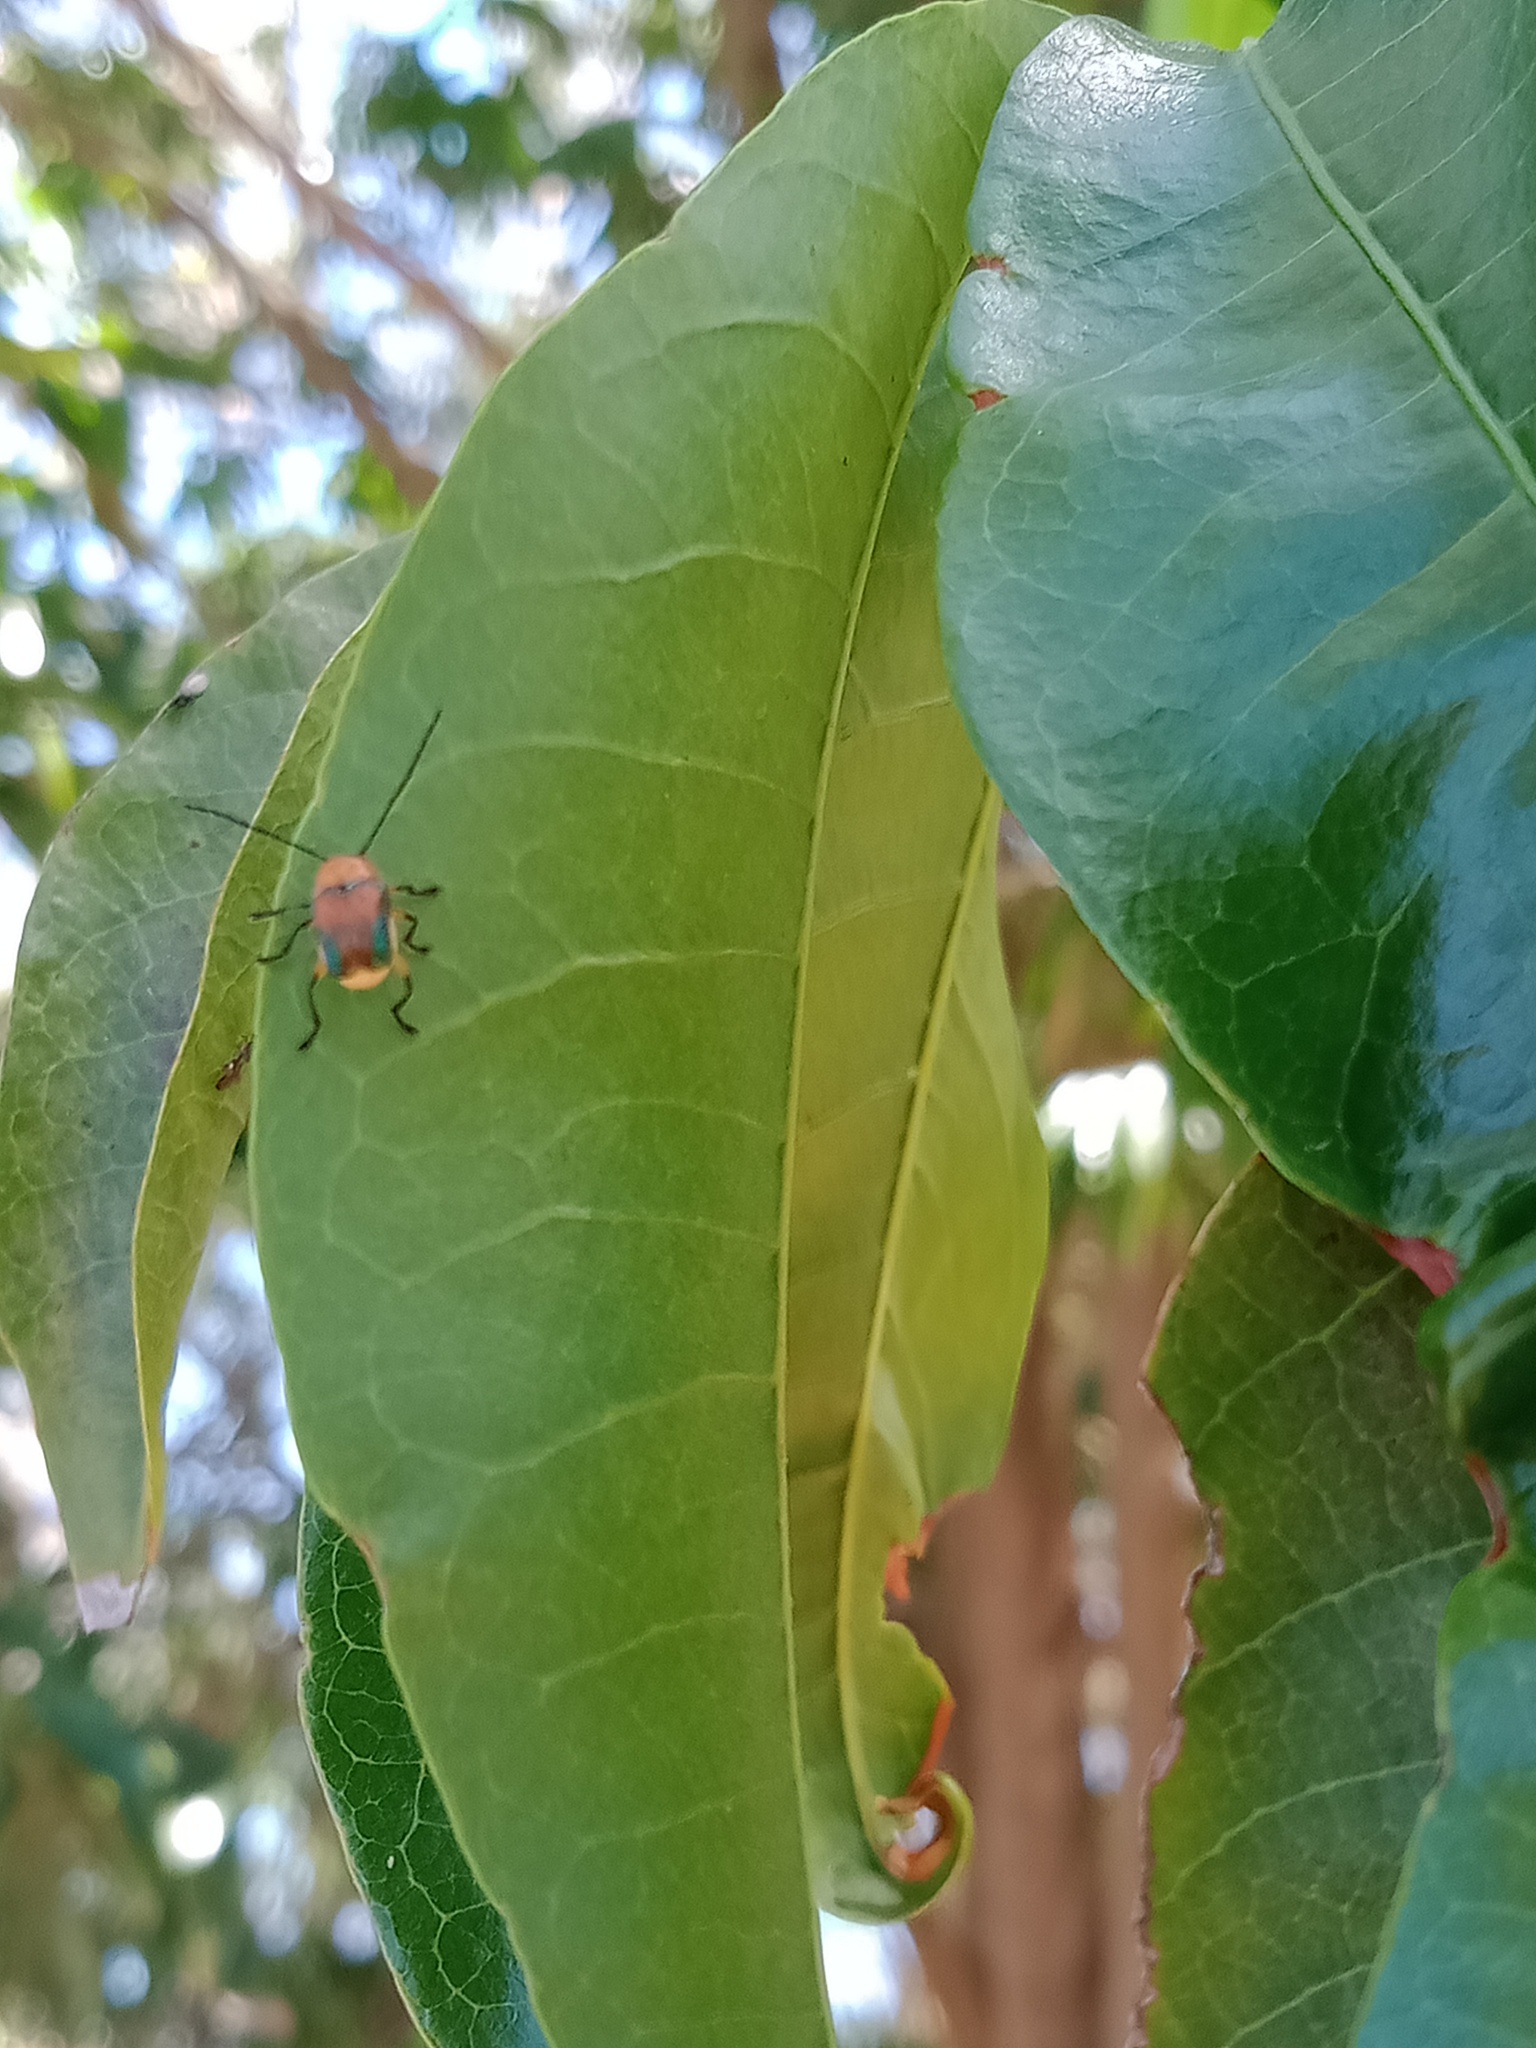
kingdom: Animalia
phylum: Arthropoda
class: Insecta
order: Coleoptera
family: Chrysomelidae
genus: Aporocera
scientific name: Aporocera iridipennis
